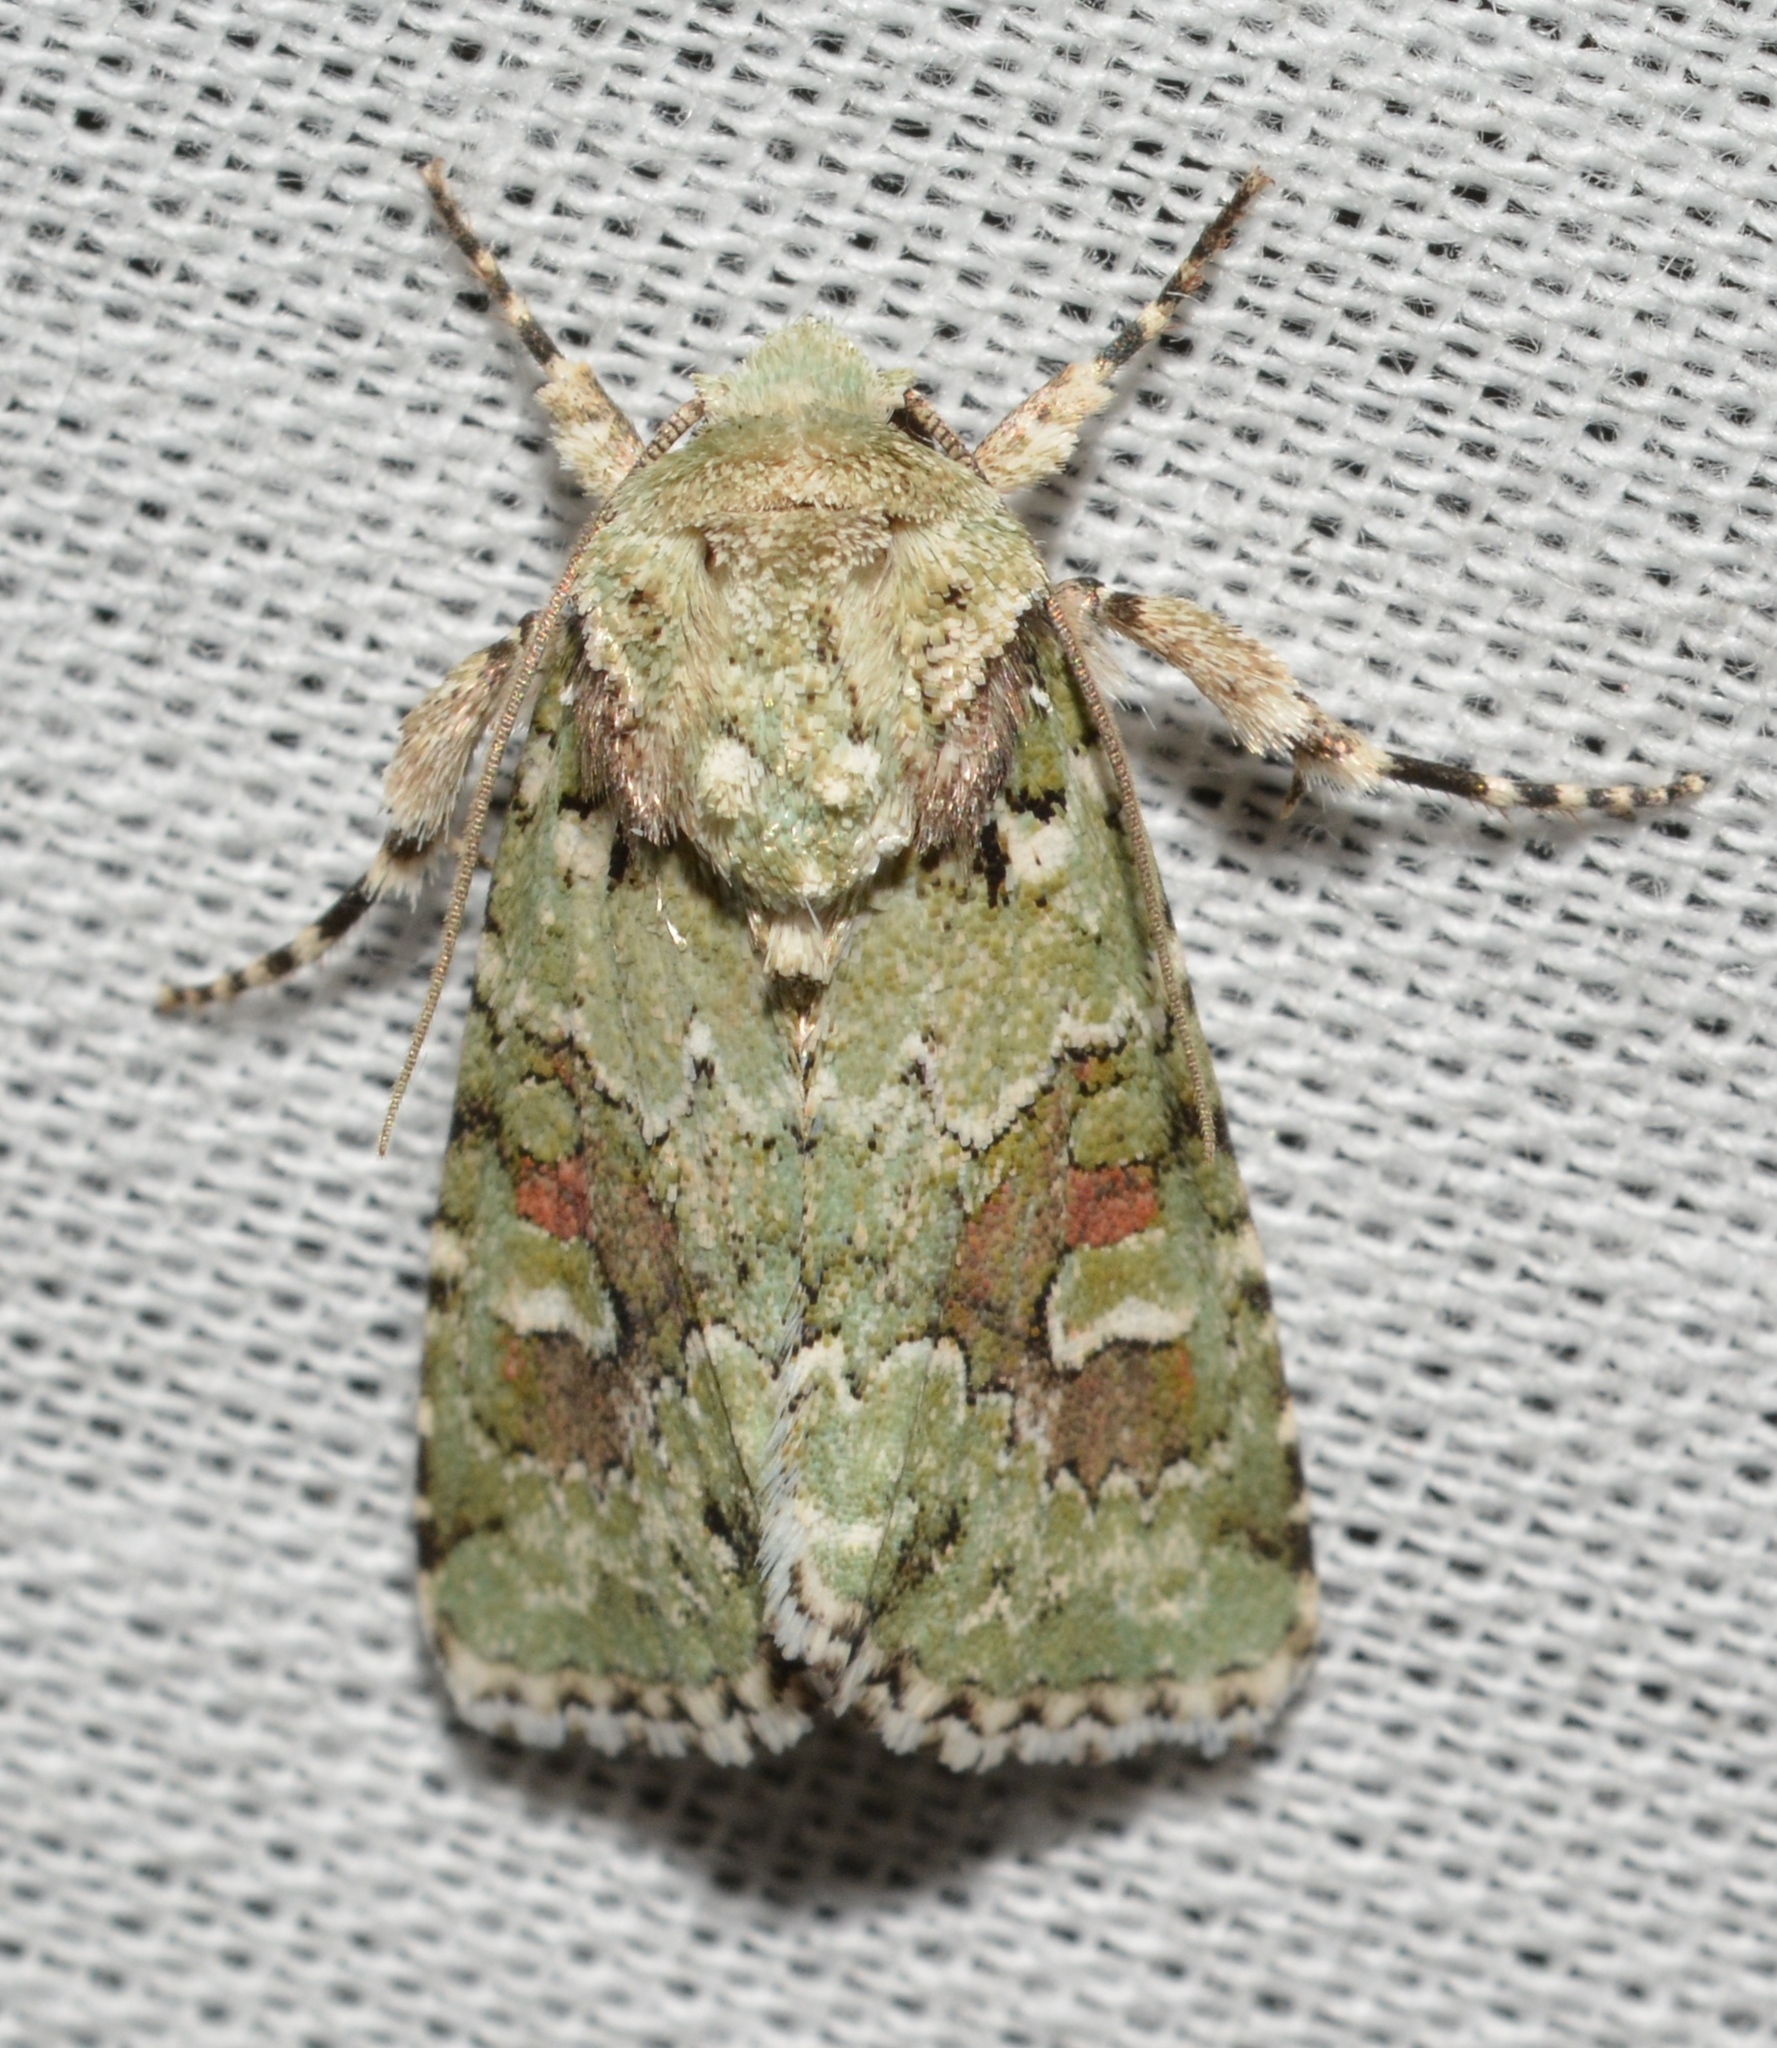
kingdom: Animalia
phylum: Arthropoda
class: Insecta
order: Lepidoptera
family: Noctuidae
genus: Lacinipolia
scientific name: Lacinipolia laudabilis
